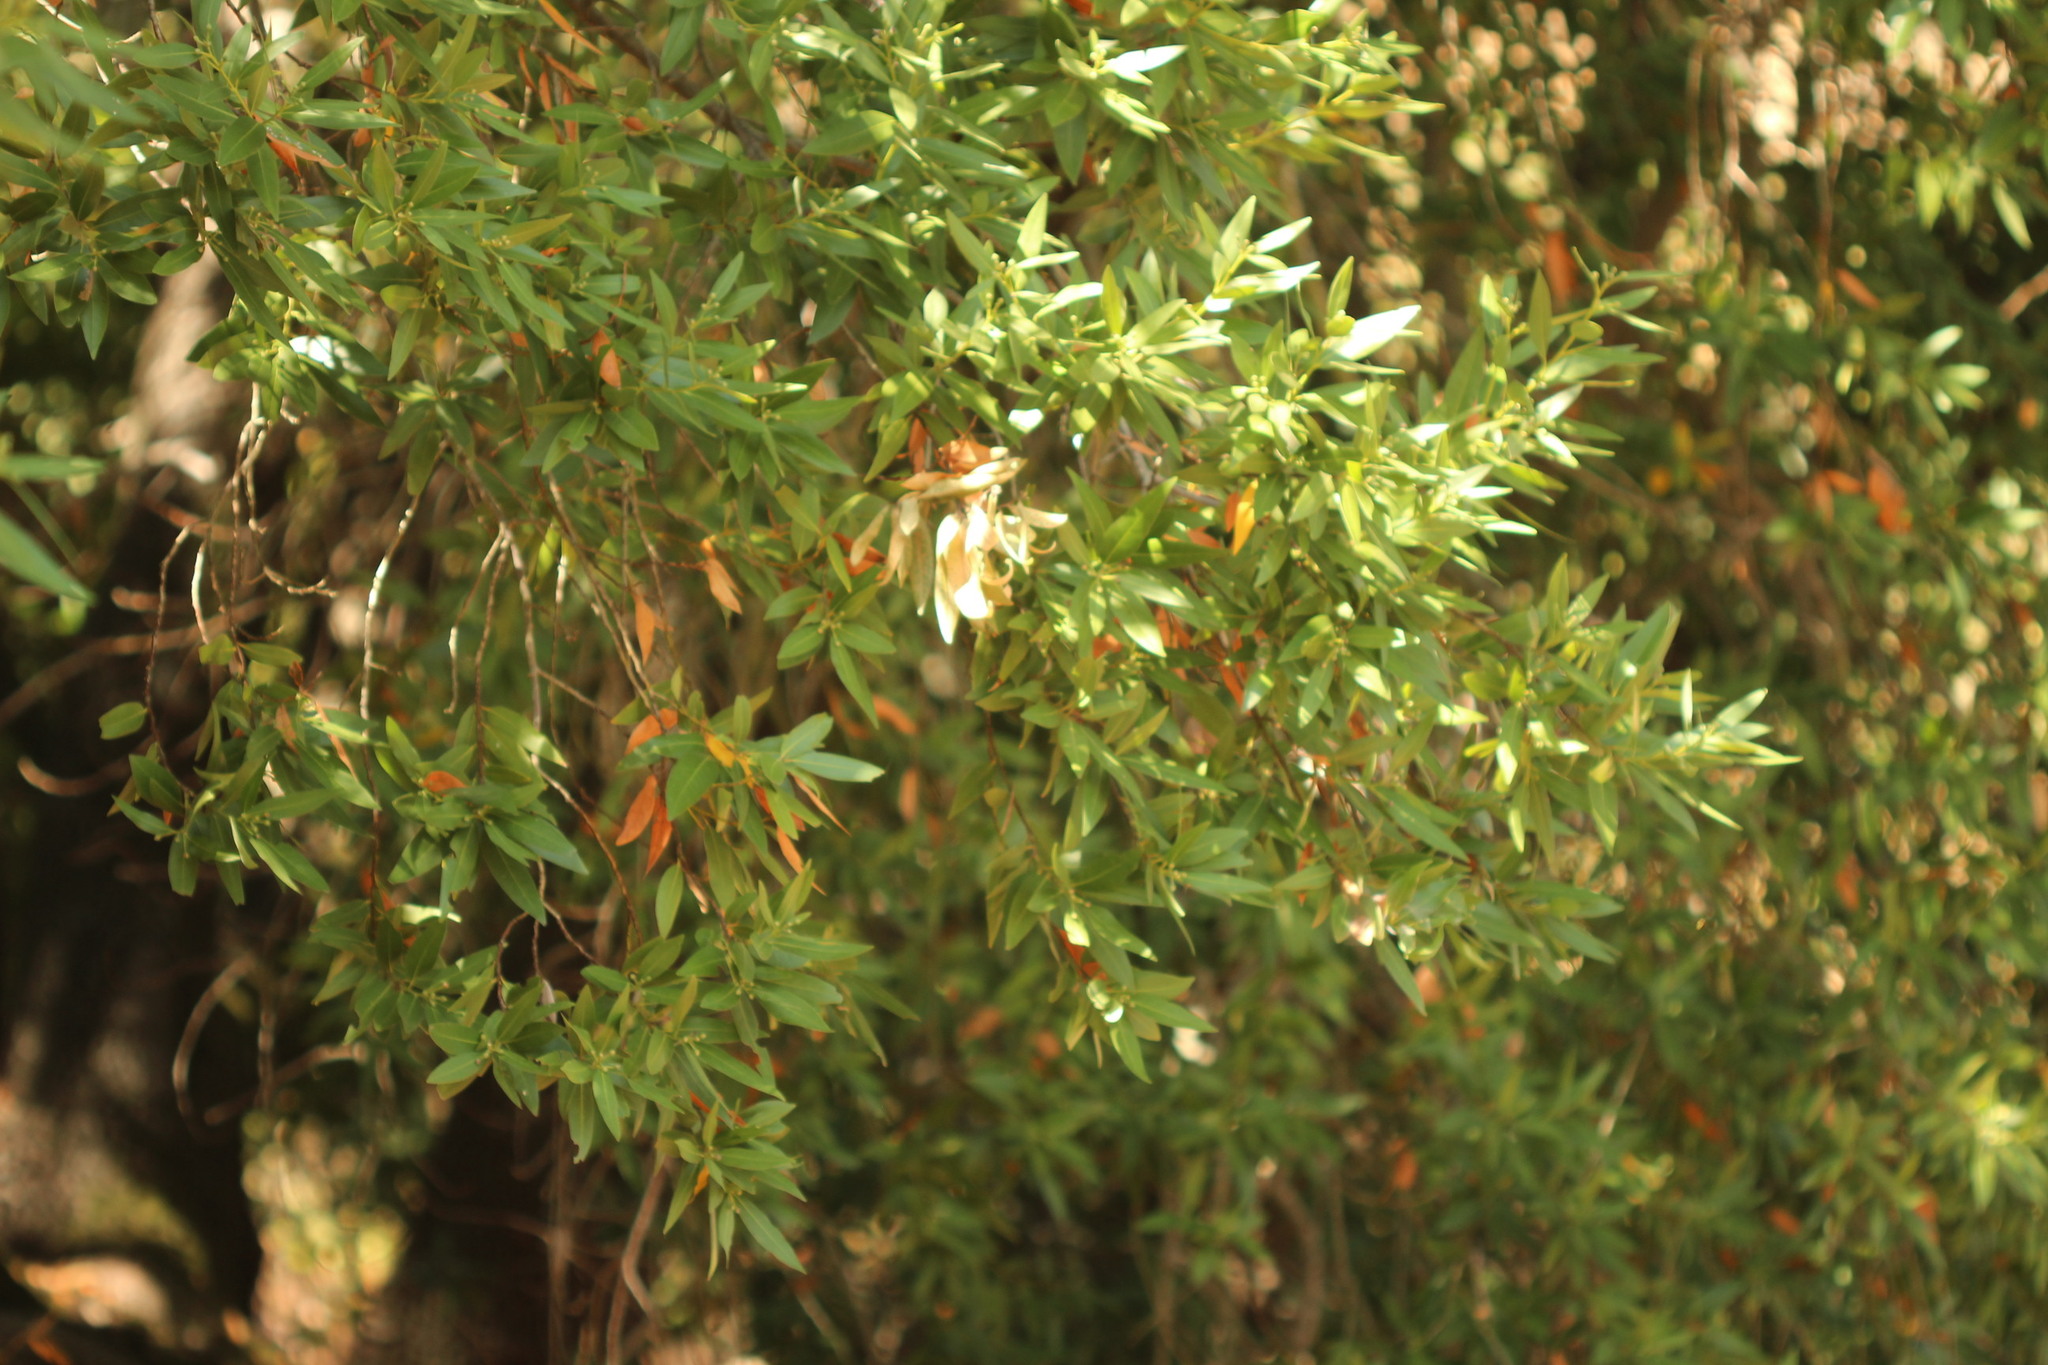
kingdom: Plantae
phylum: Tracheophyta
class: Magnoliopsida
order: Laurales
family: Lauraceae
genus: Umbellularia
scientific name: Umbellularia californica
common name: California bay
